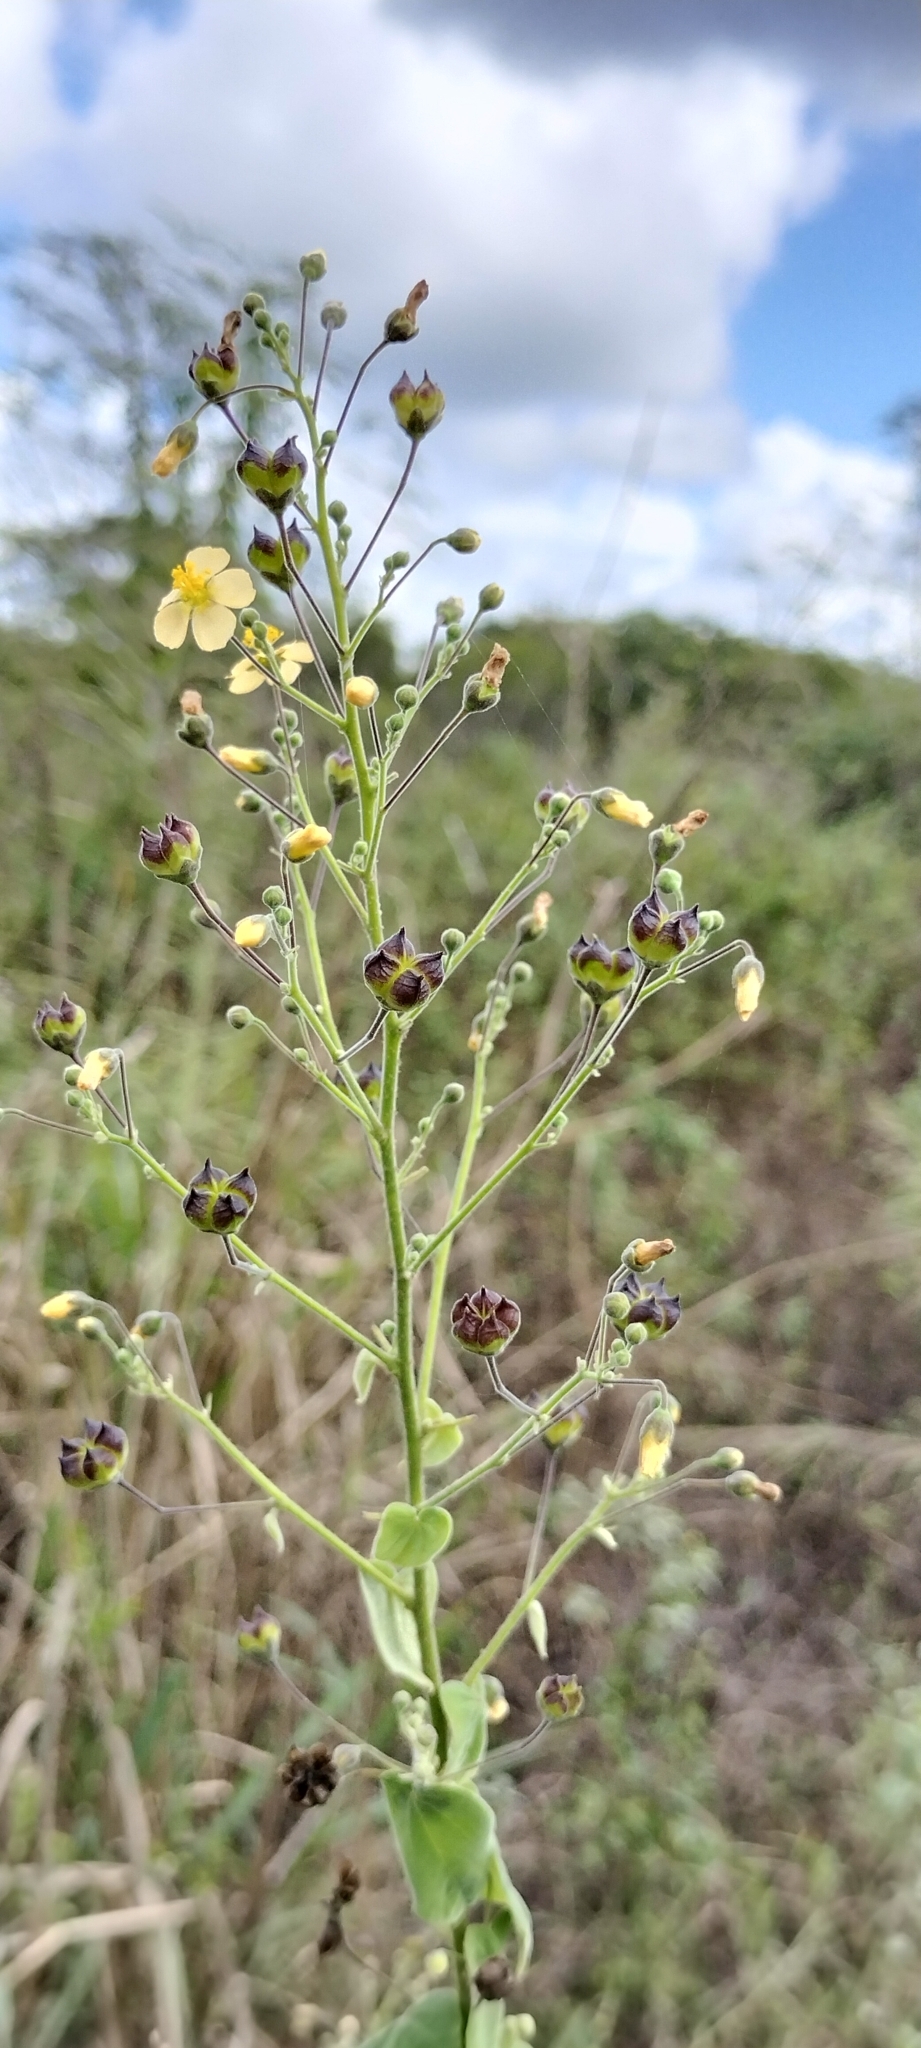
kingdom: Plantae
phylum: Tracheophyta
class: Magnoliopsida
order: Malvales
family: Malvaceae
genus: Wissadula
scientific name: Wissadula amplissima
